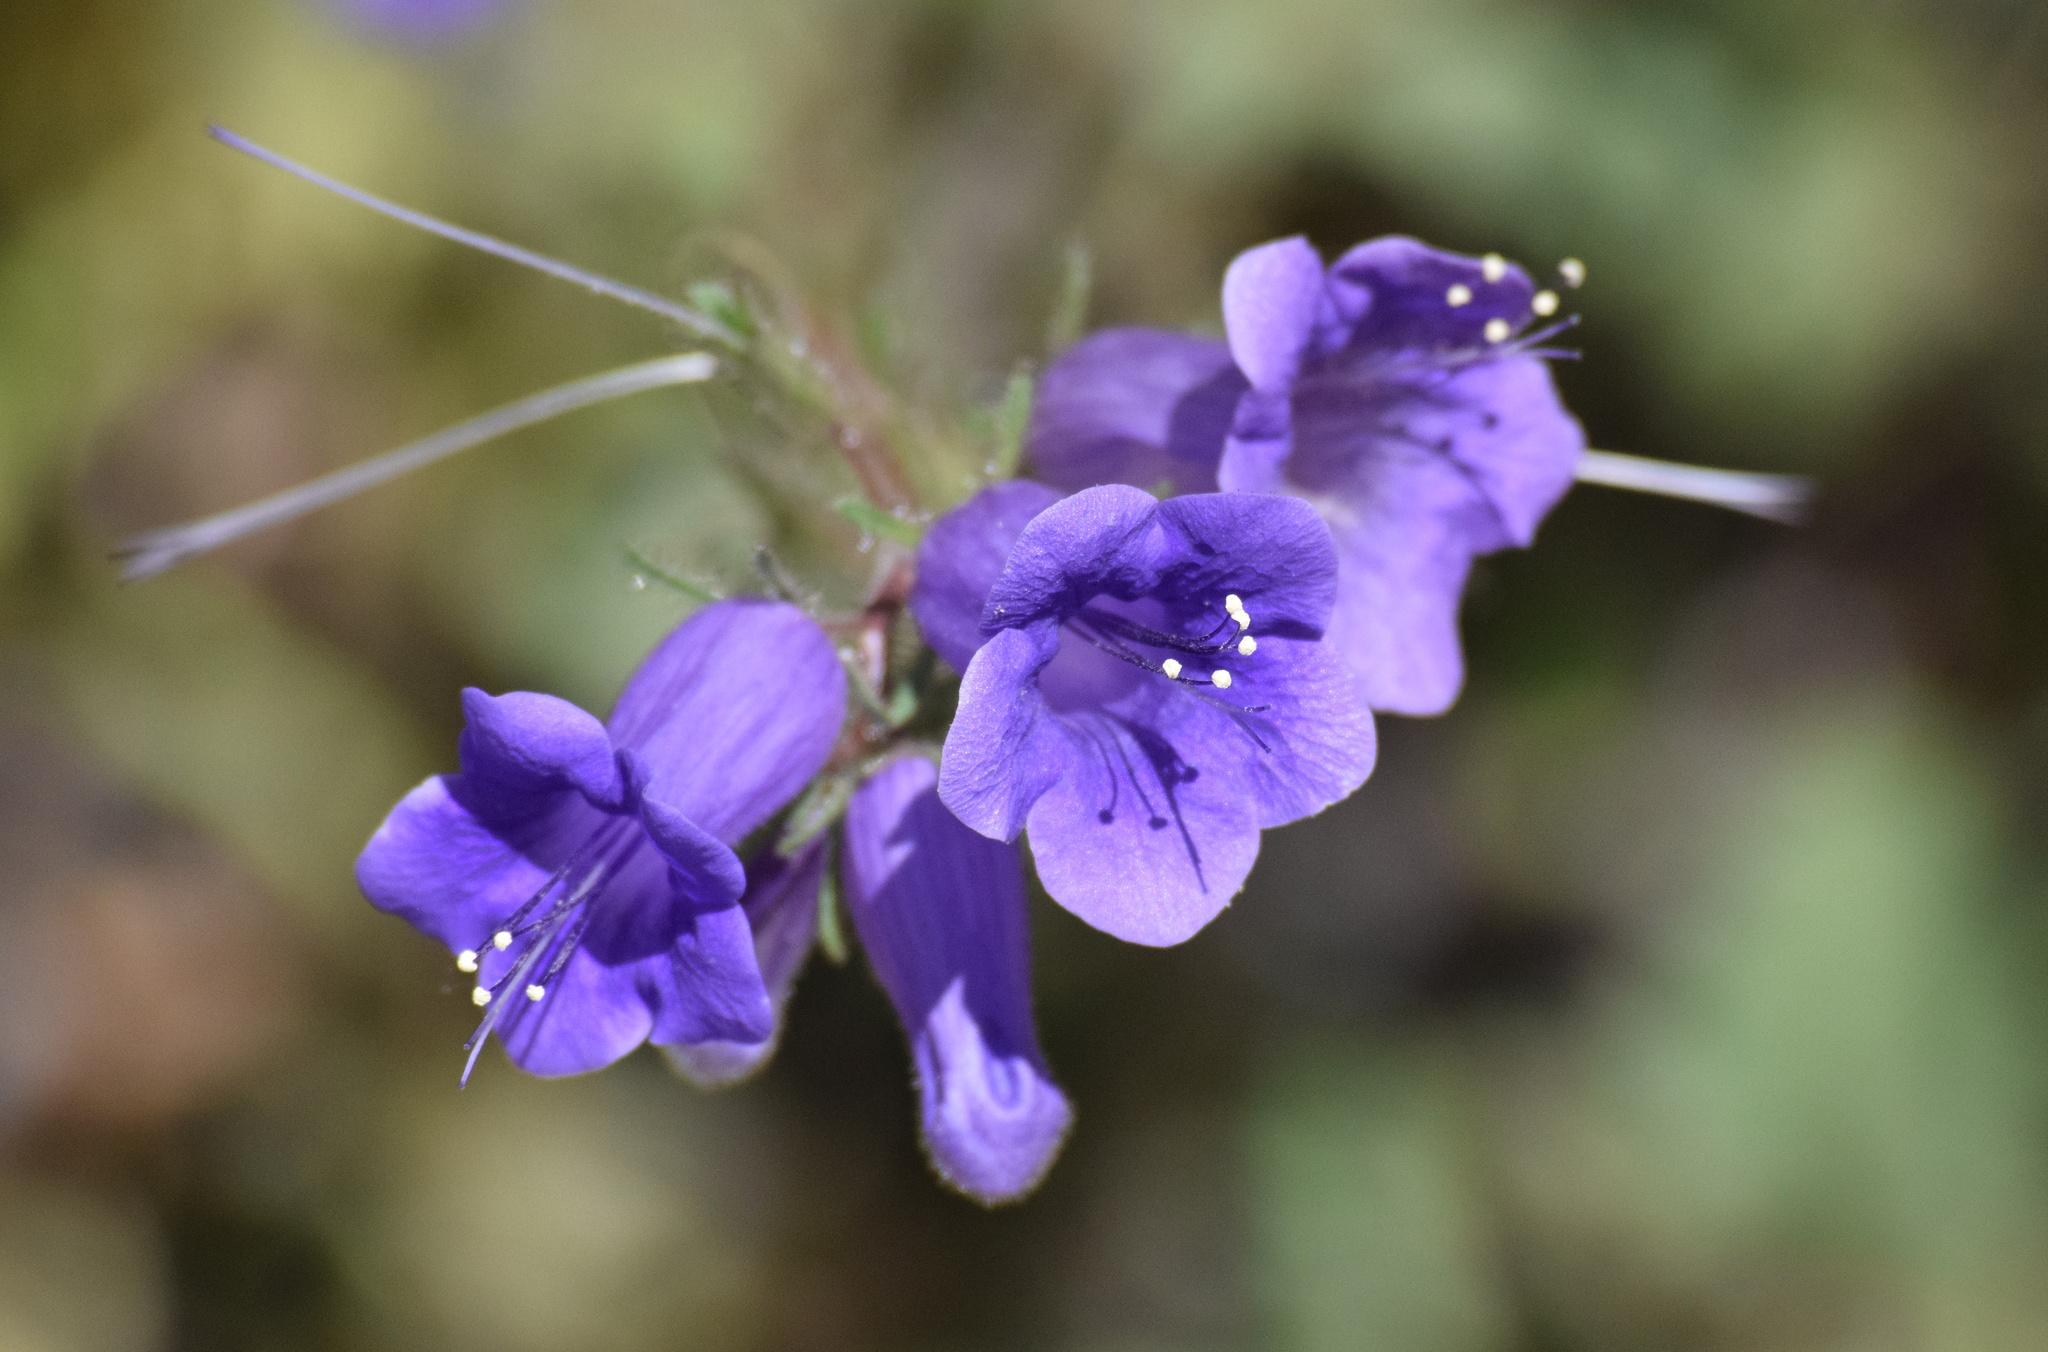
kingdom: Plantae
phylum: Tracheophyta
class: Magnoliopsida
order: Boraginales
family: Hydrophyllaceae
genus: Phacelia
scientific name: Phacelia minor
